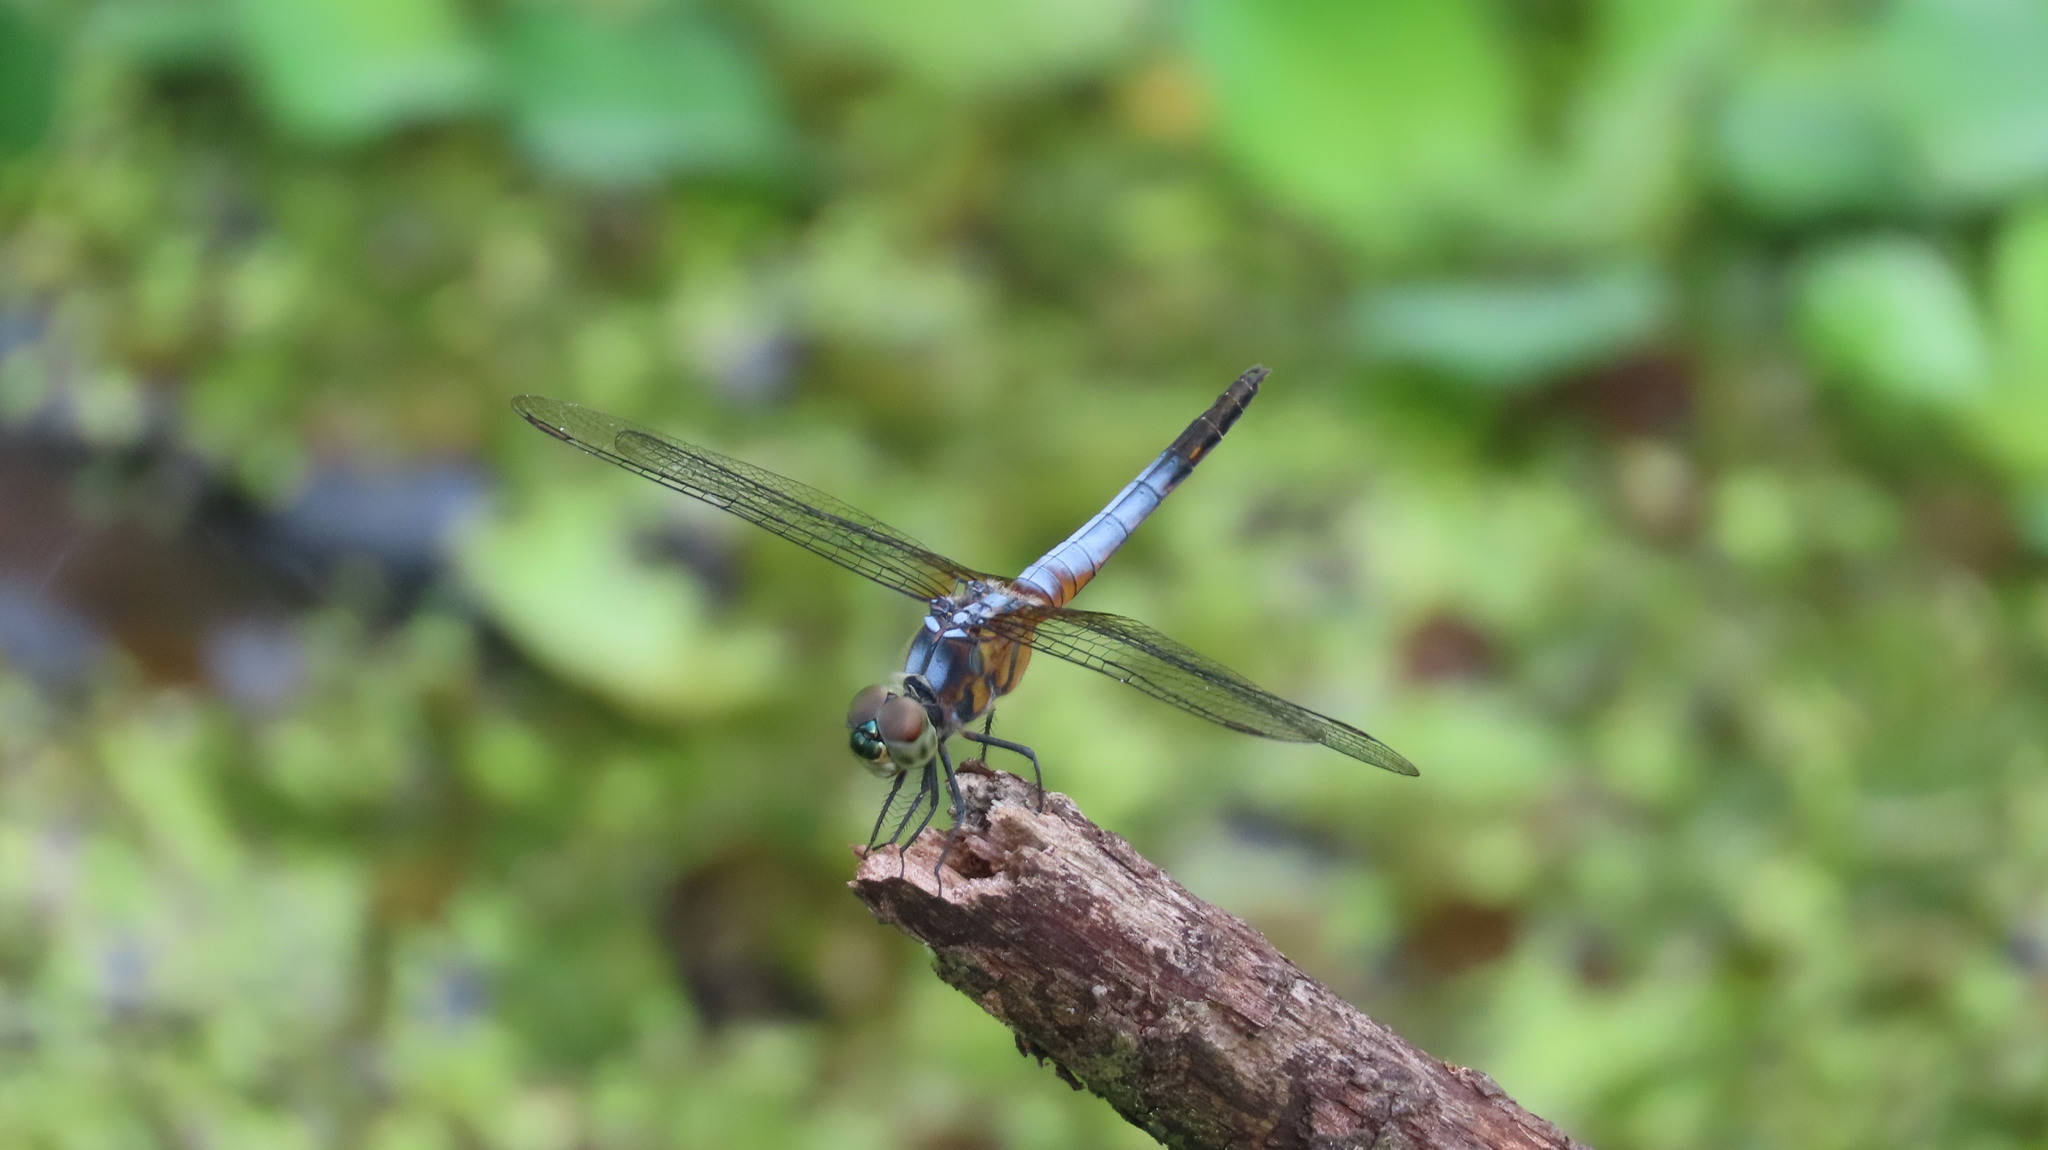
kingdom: Animalia
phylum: Arthropoda
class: Insecta
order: Odonata
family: Libellulidae
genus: Brachydiplax
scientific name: Brachydiplax chalybea
